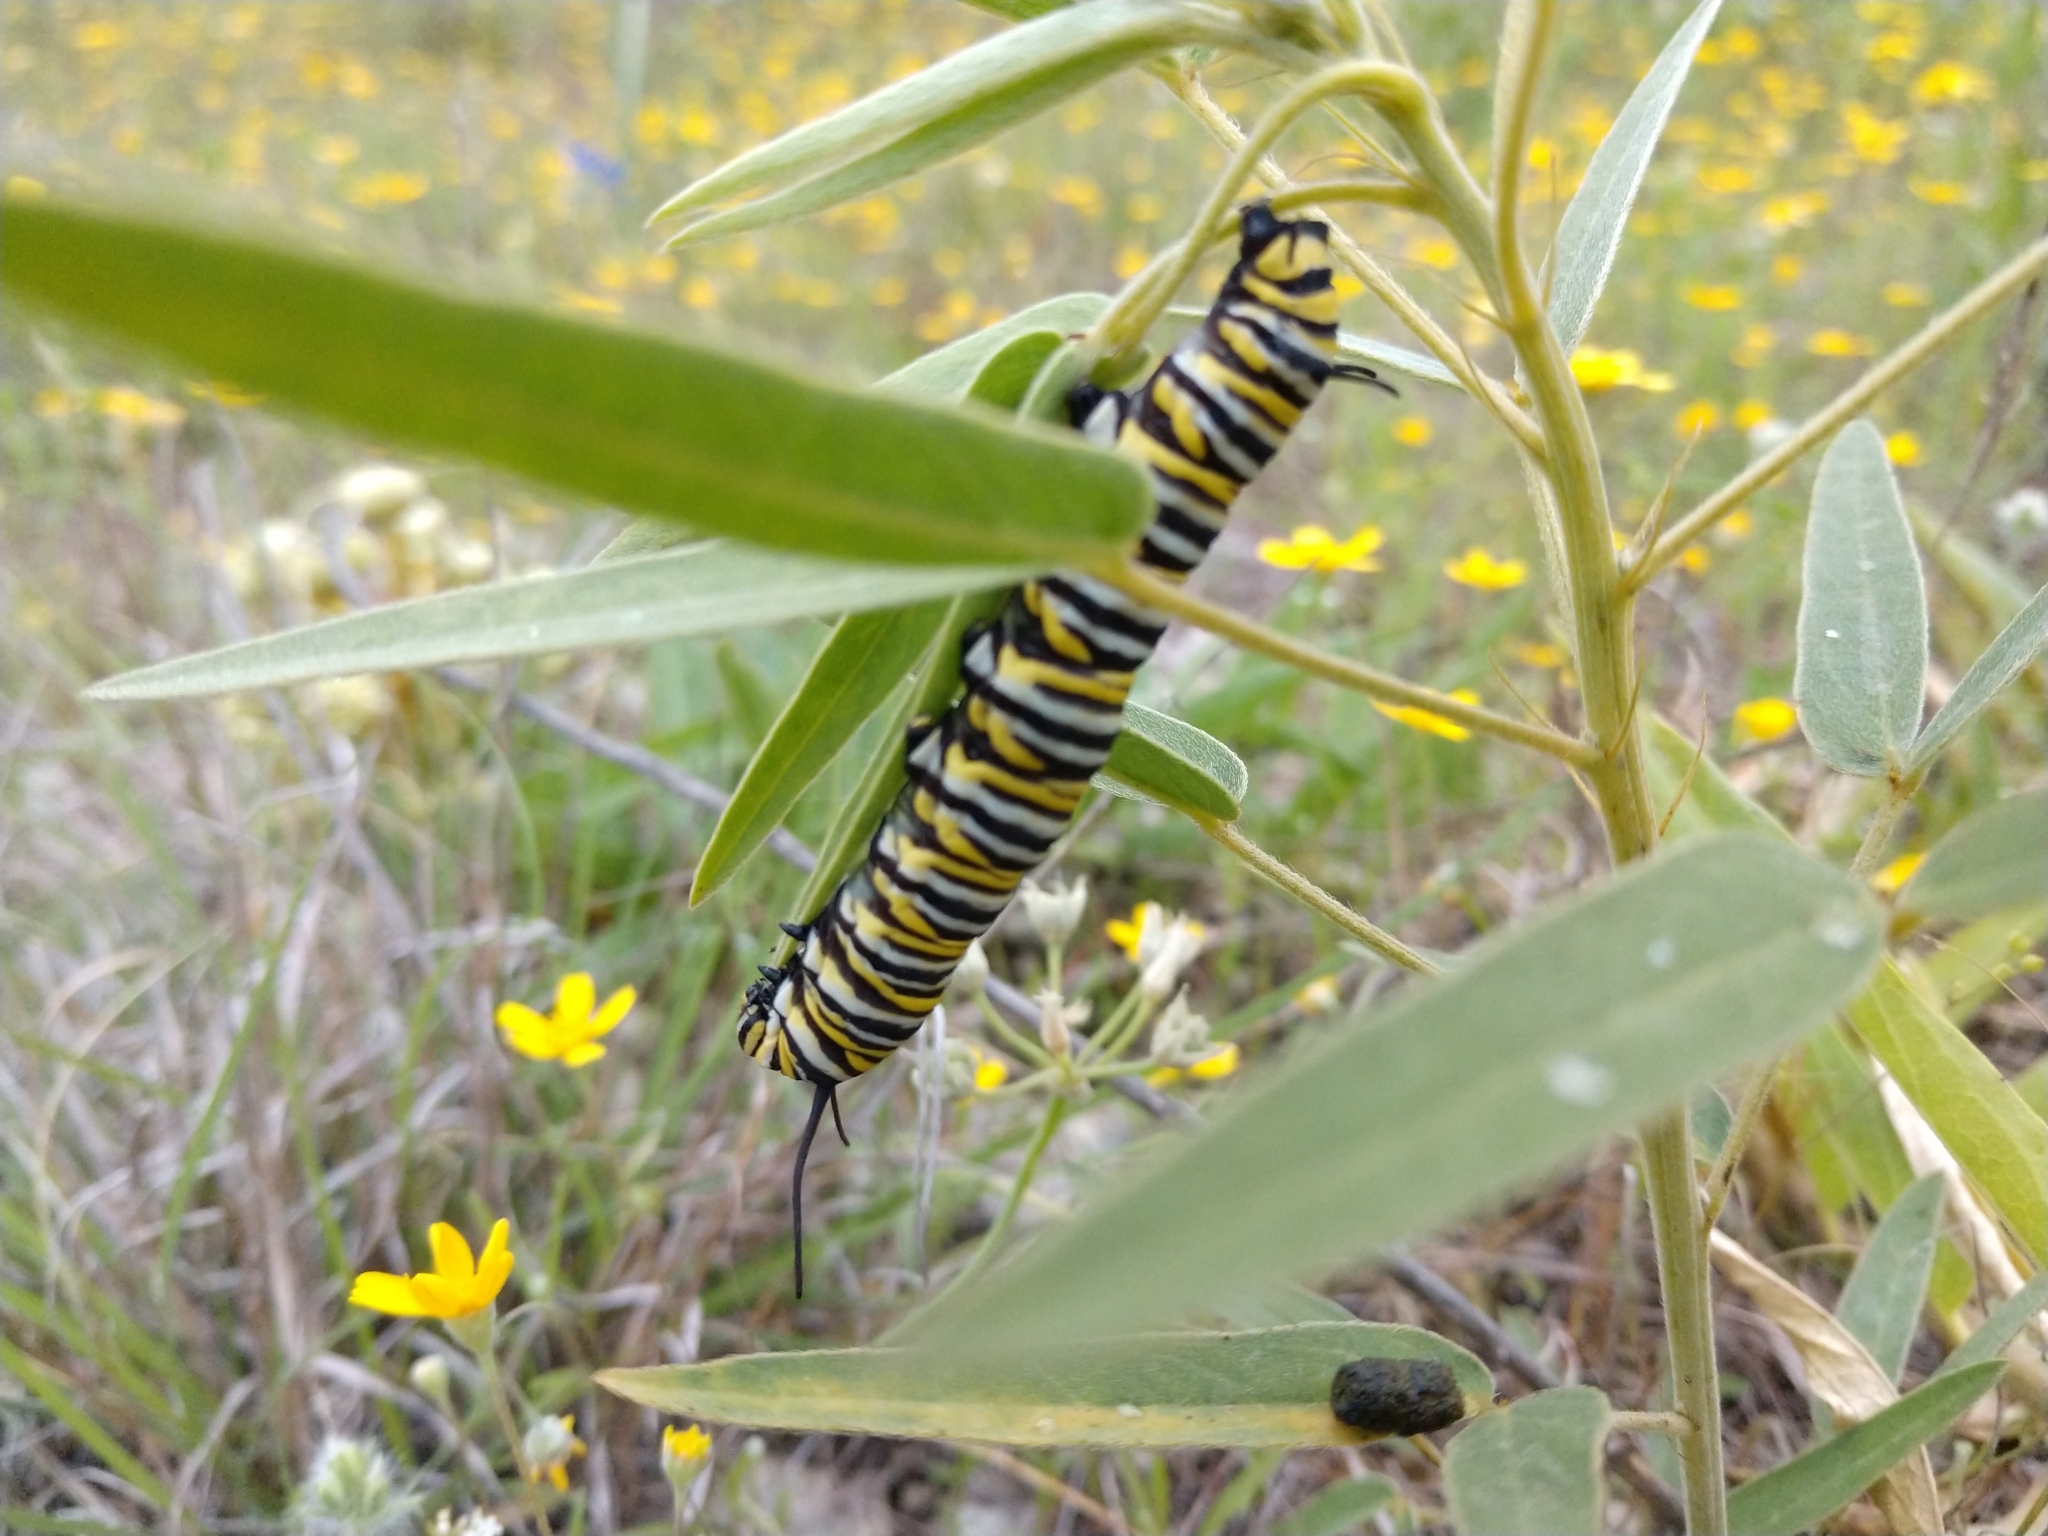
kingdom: Animalia
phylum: Arthropoda
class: Insecta
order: Lepidoptera
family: Nymphalidae
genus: Danaus
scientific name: Danaus plexippus
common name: Monarch
